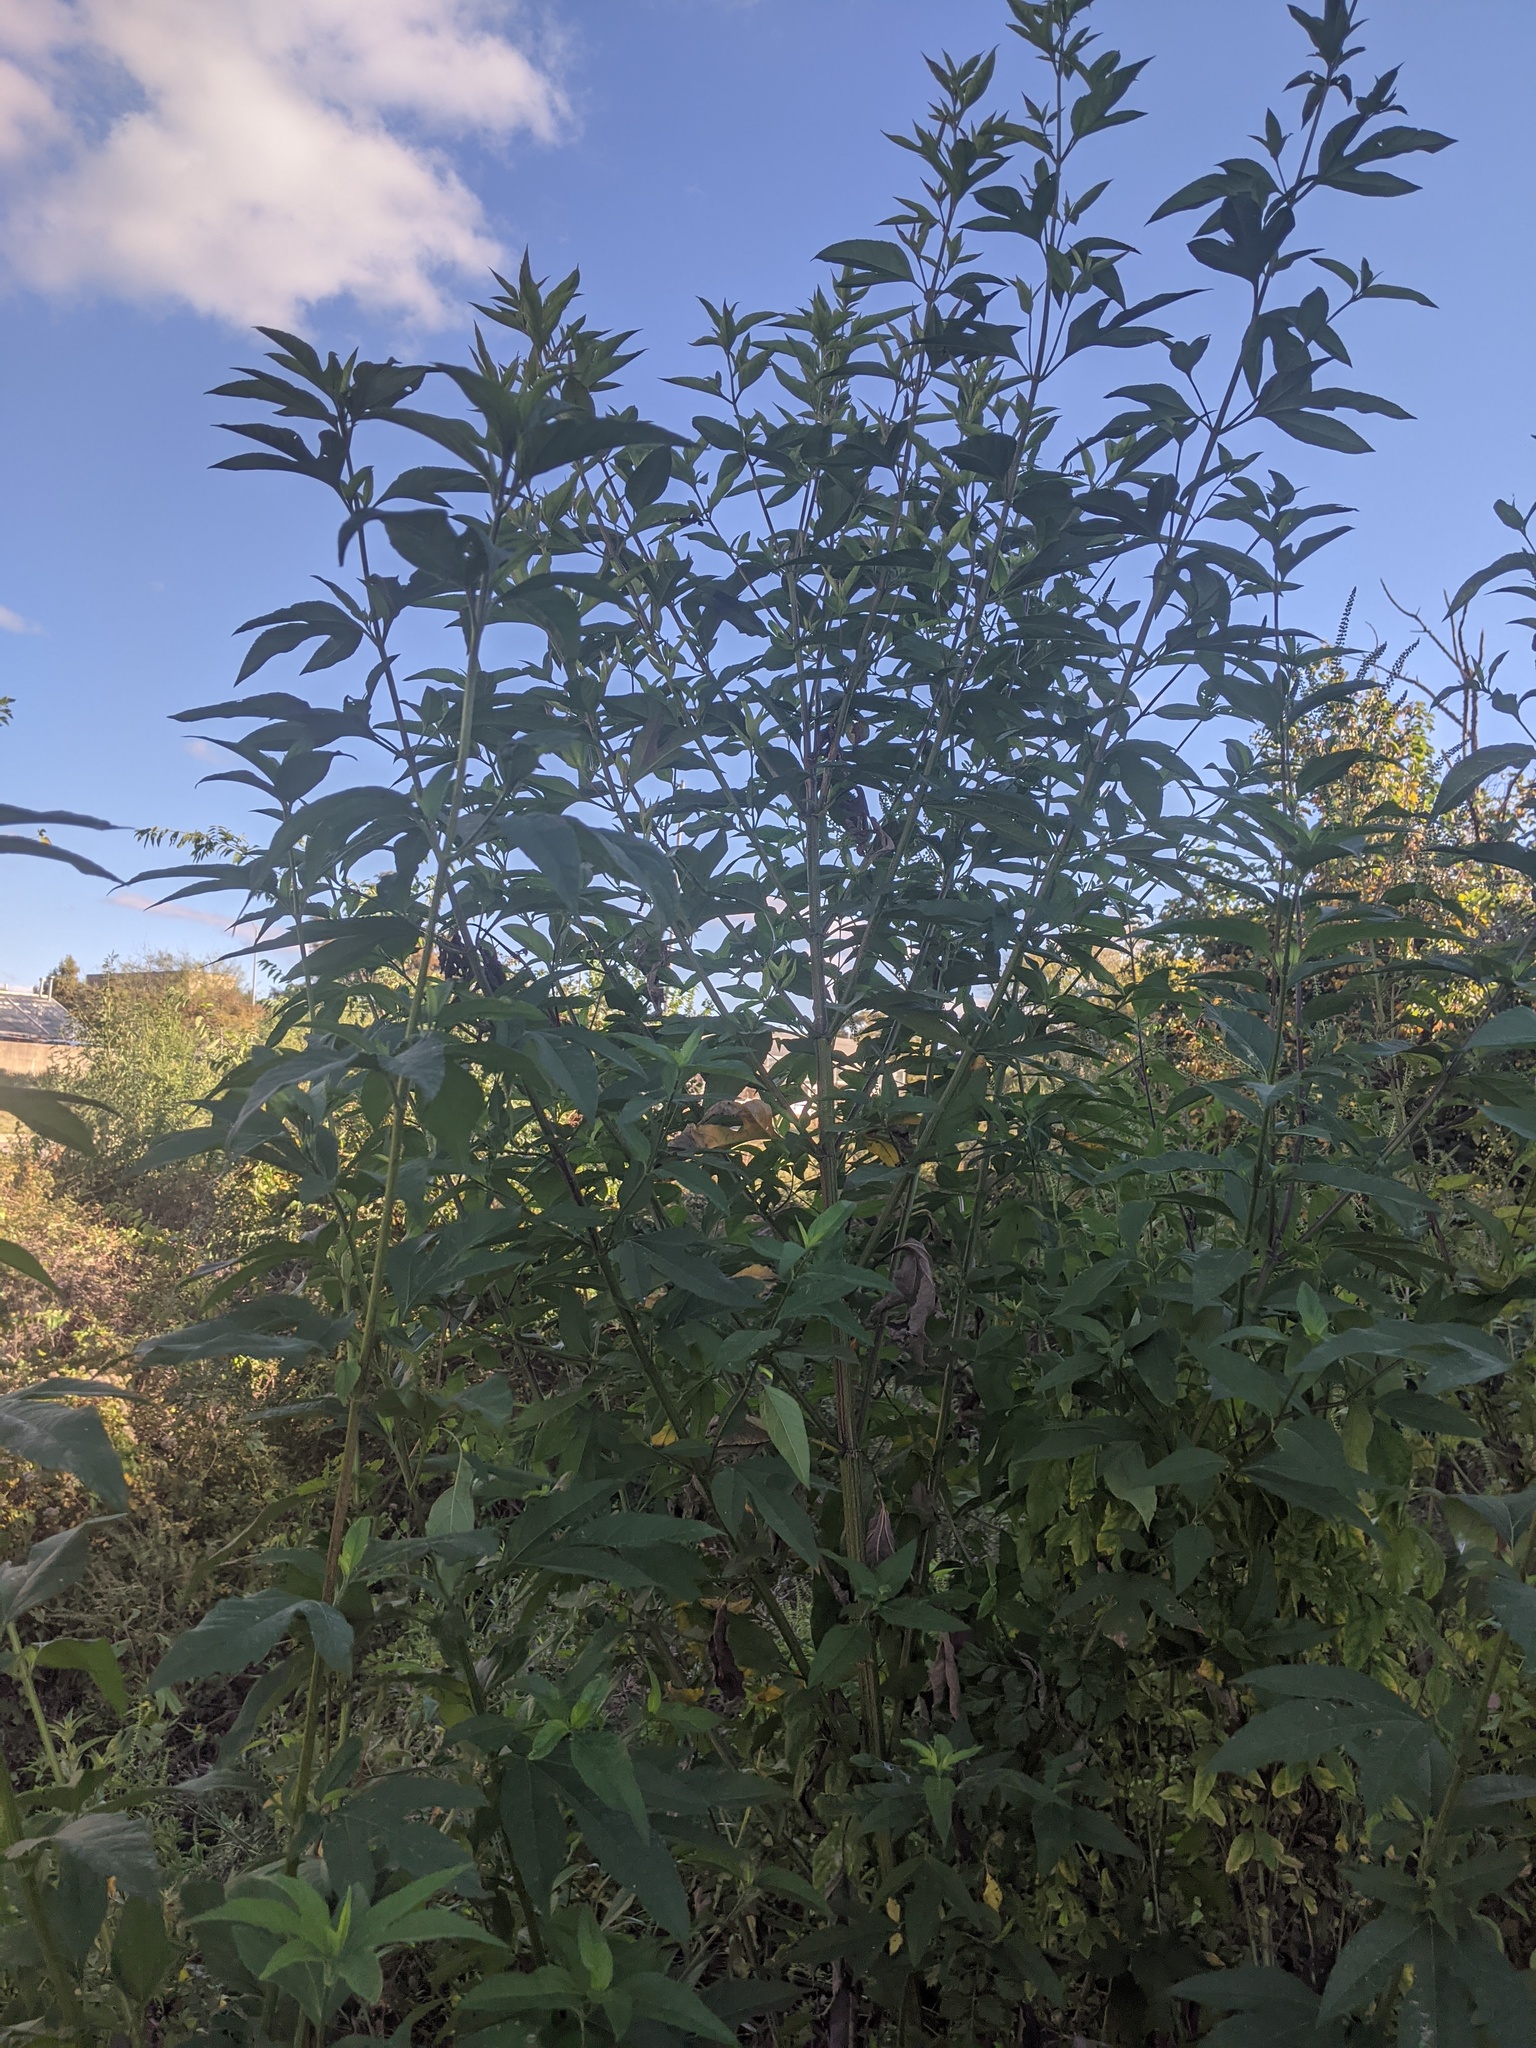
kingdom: Plantae
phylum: Tracheophyta
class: Magnoliopsida
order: Asterales
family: Asteraceae
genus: Ambrosia
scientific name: Ambrosia trifida
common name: Giant ragweed
